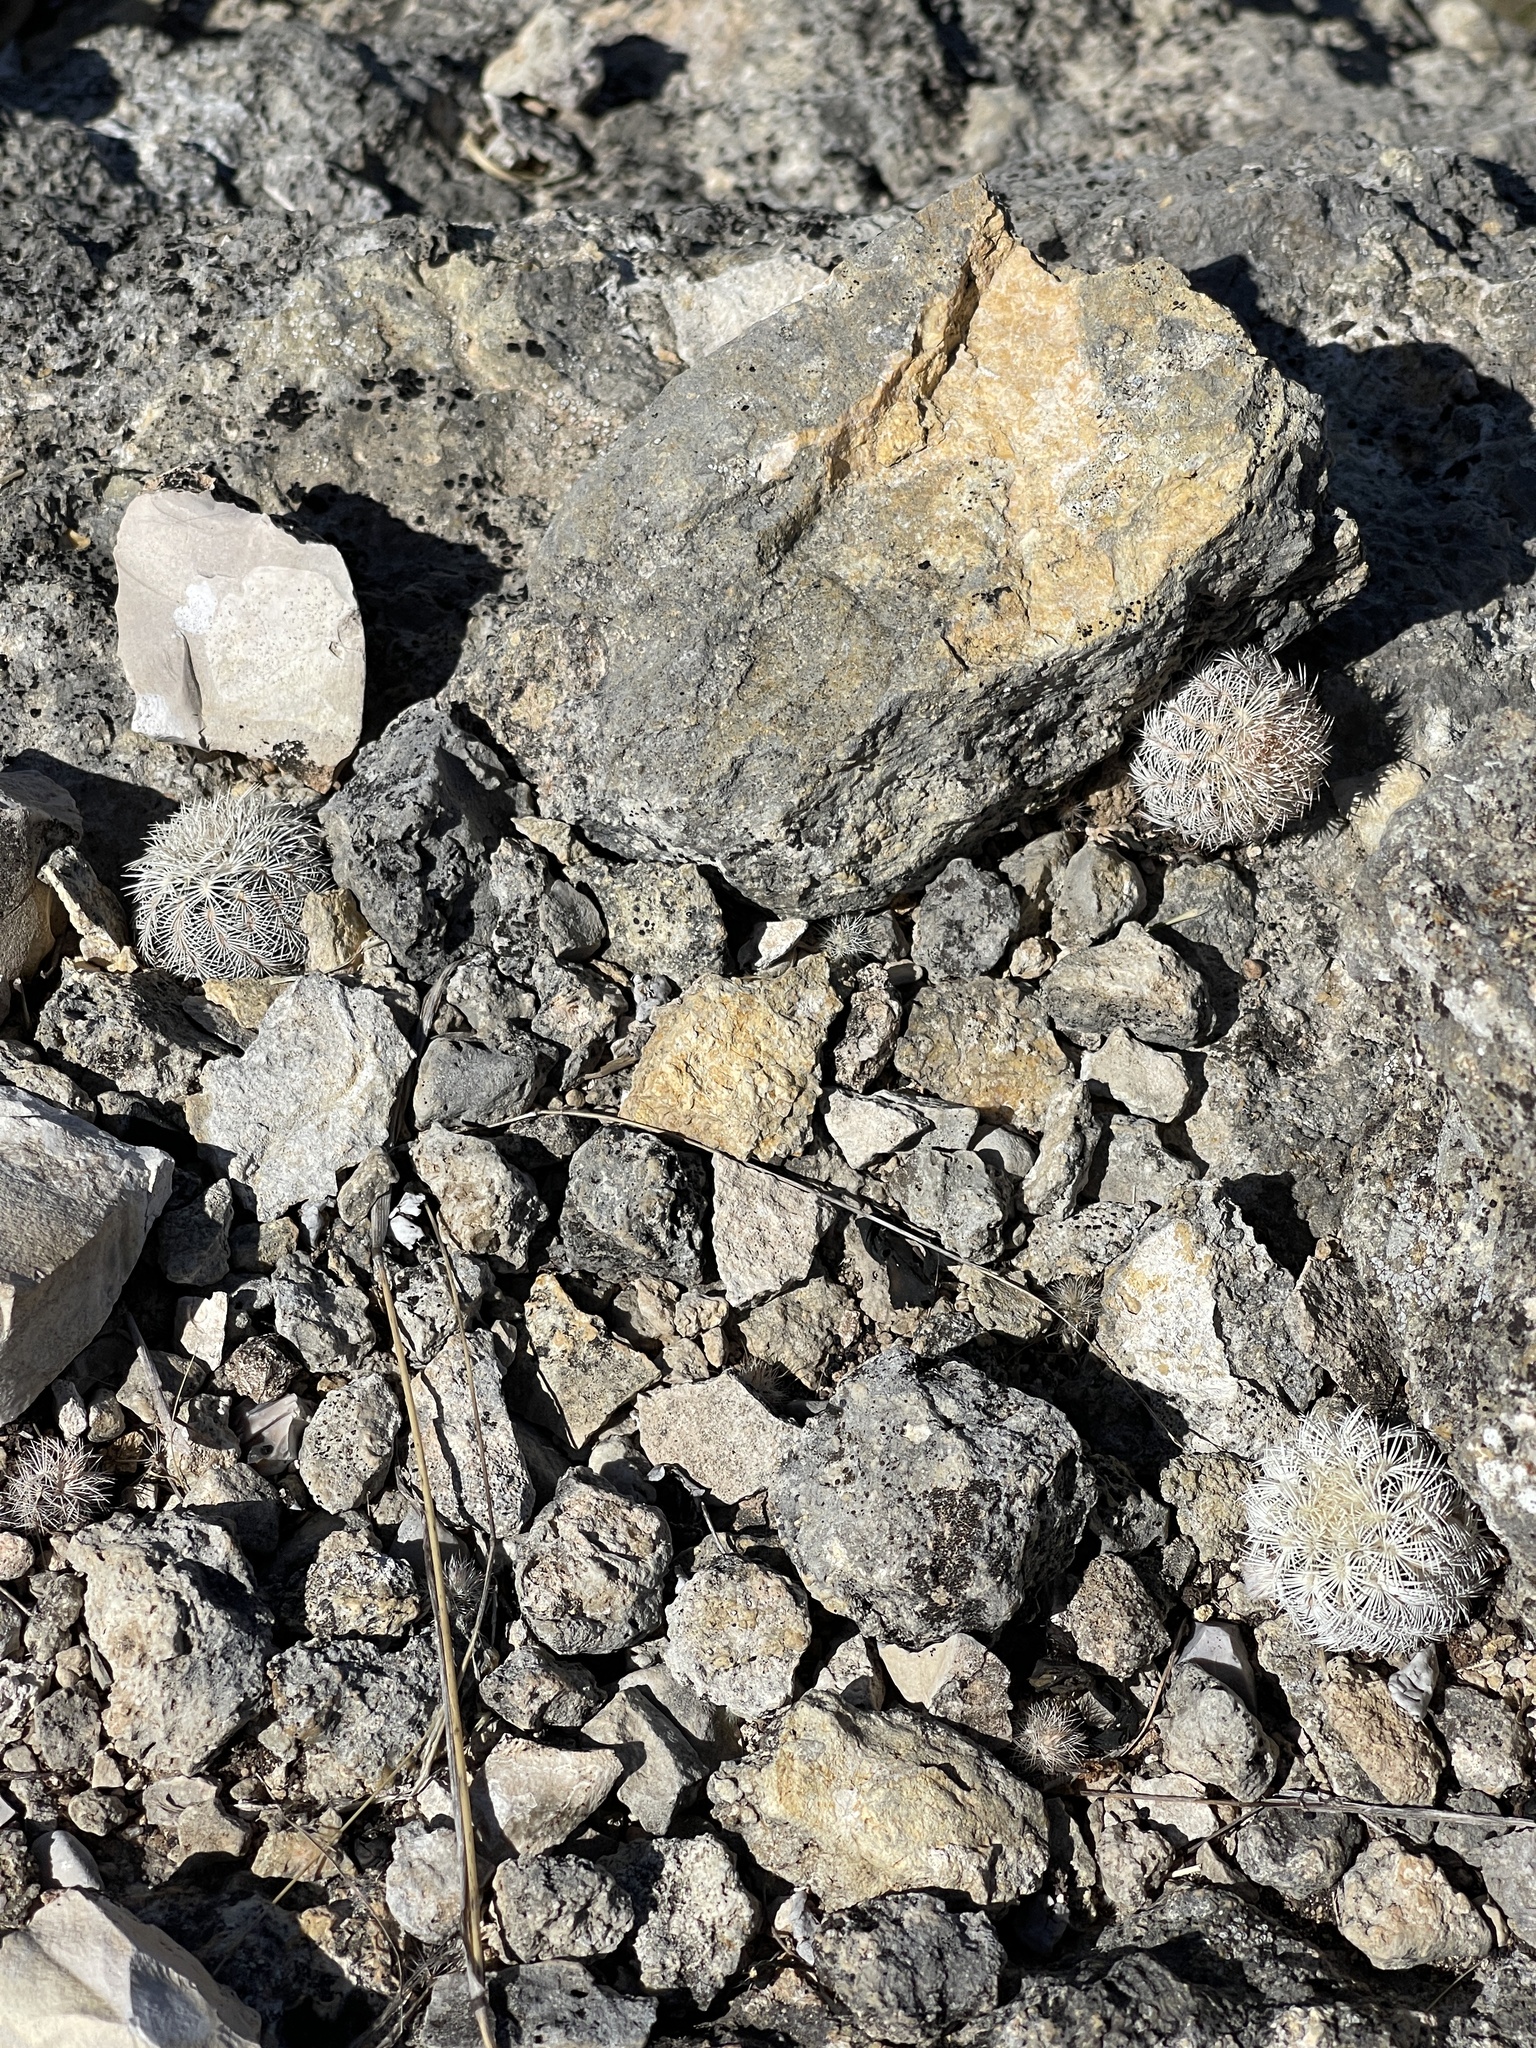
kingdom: Plantae
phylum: Tracheophyta
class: Magnoliopsida
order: Caryophyllales
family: Cactaceae
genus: Echinocereus
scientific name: Echinocereus reichenbachii
